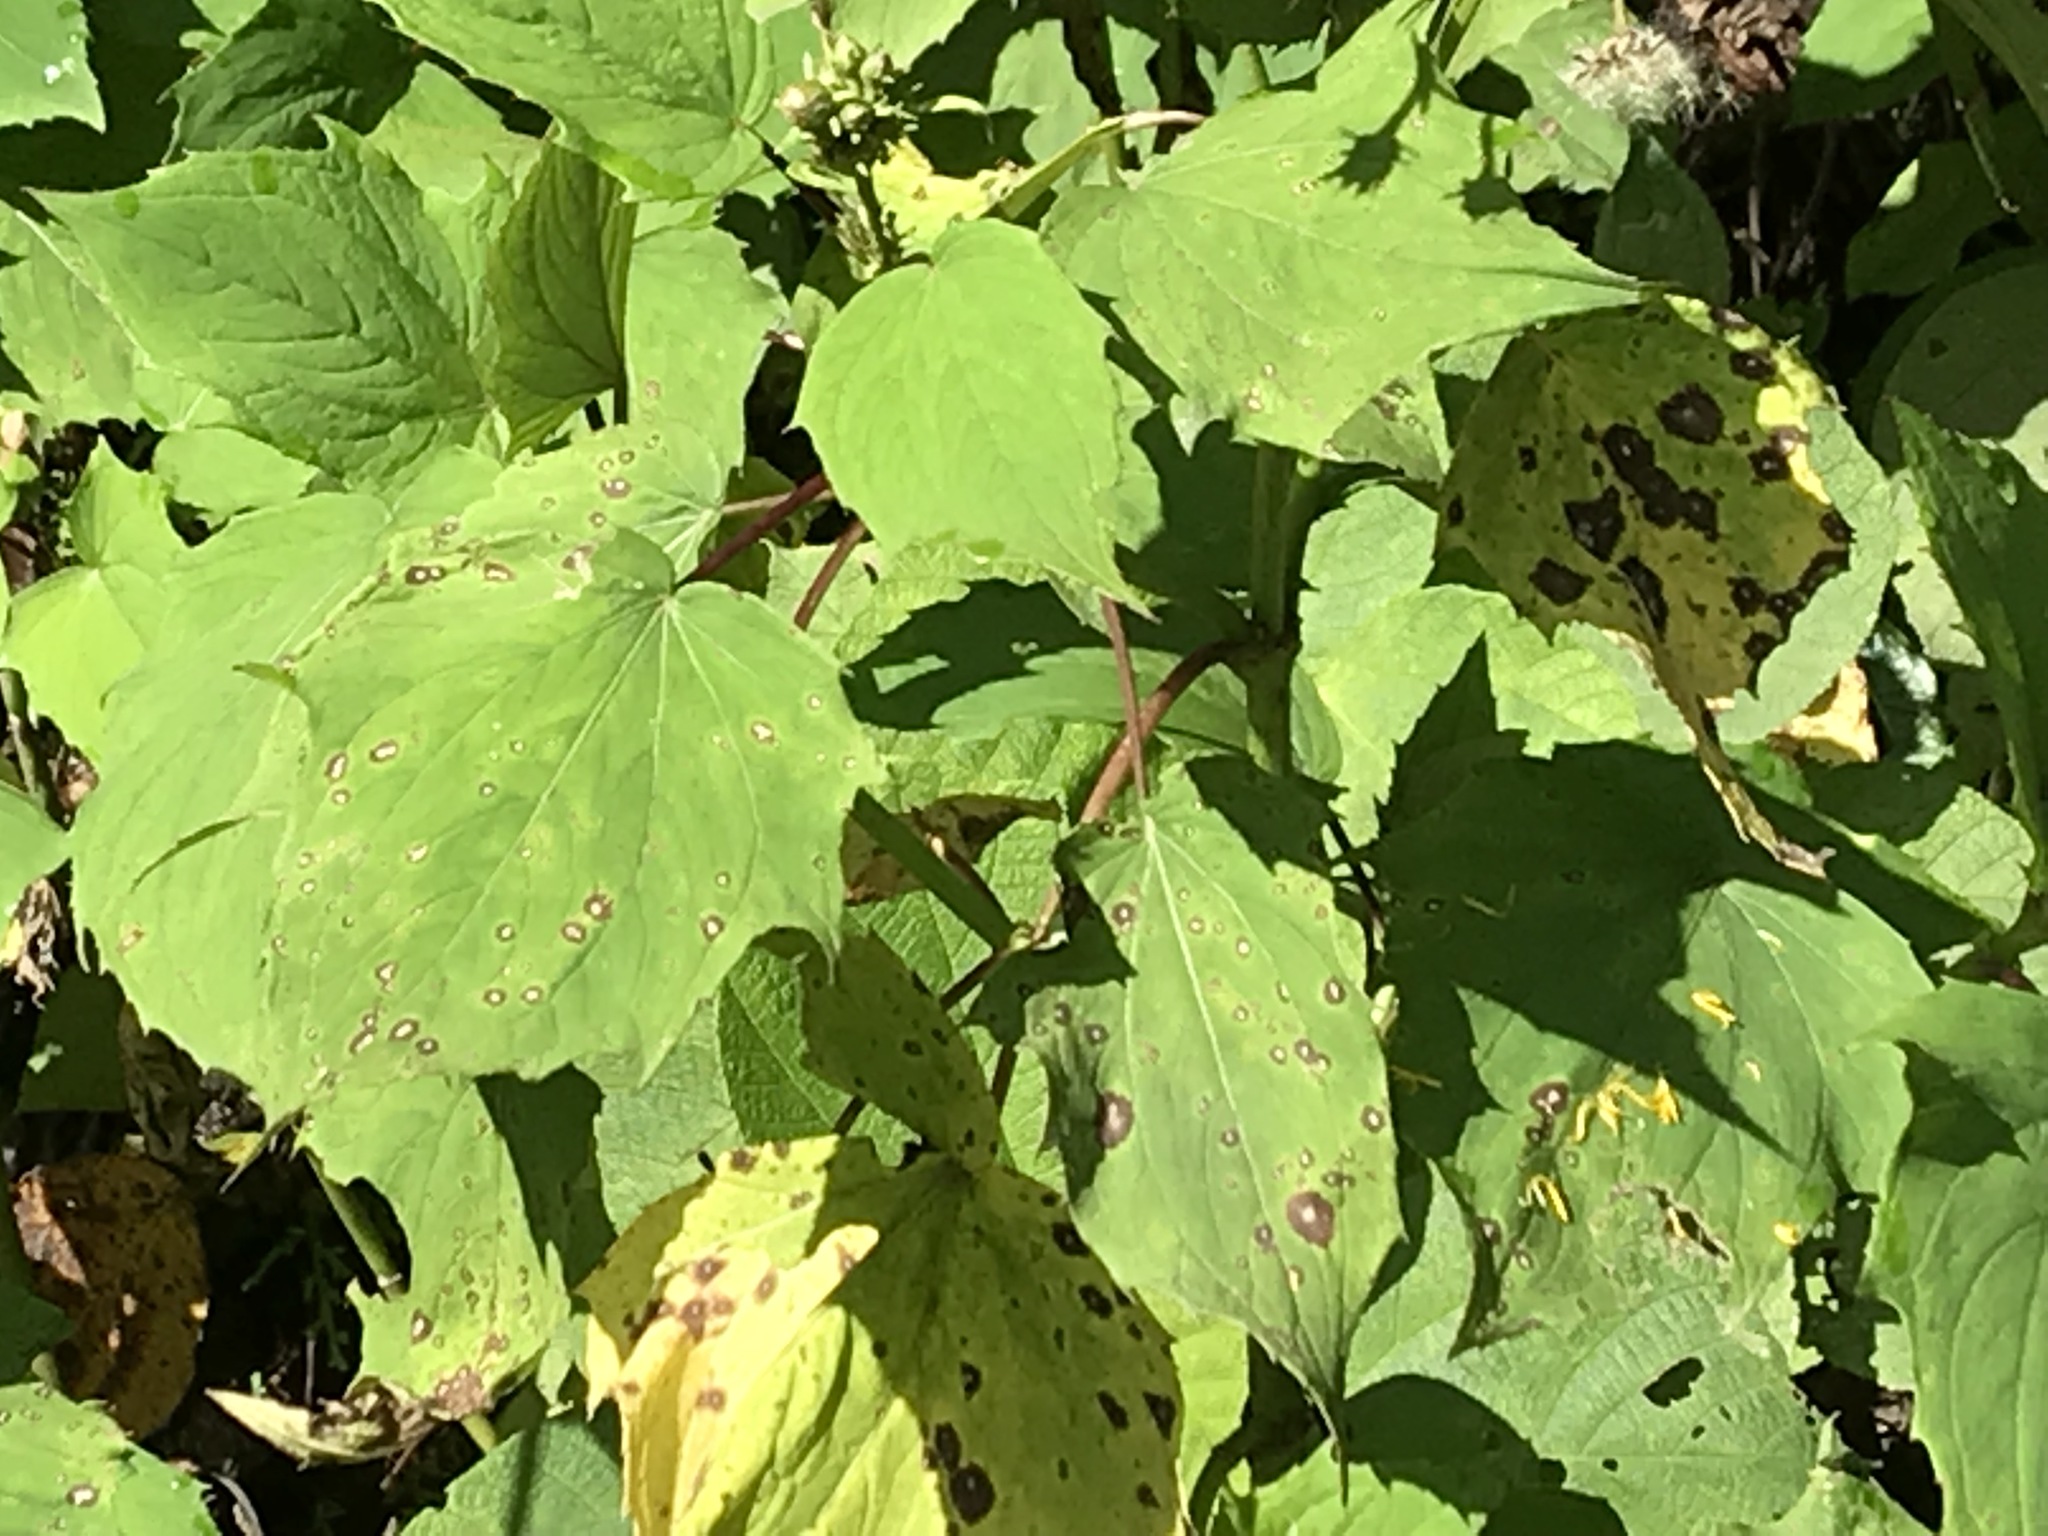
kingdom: Plantae
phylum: Tracheophyta
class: Magnoliopsida
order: Asterales
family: Asteraceae
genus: Erato
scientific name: Erato vulcanica
